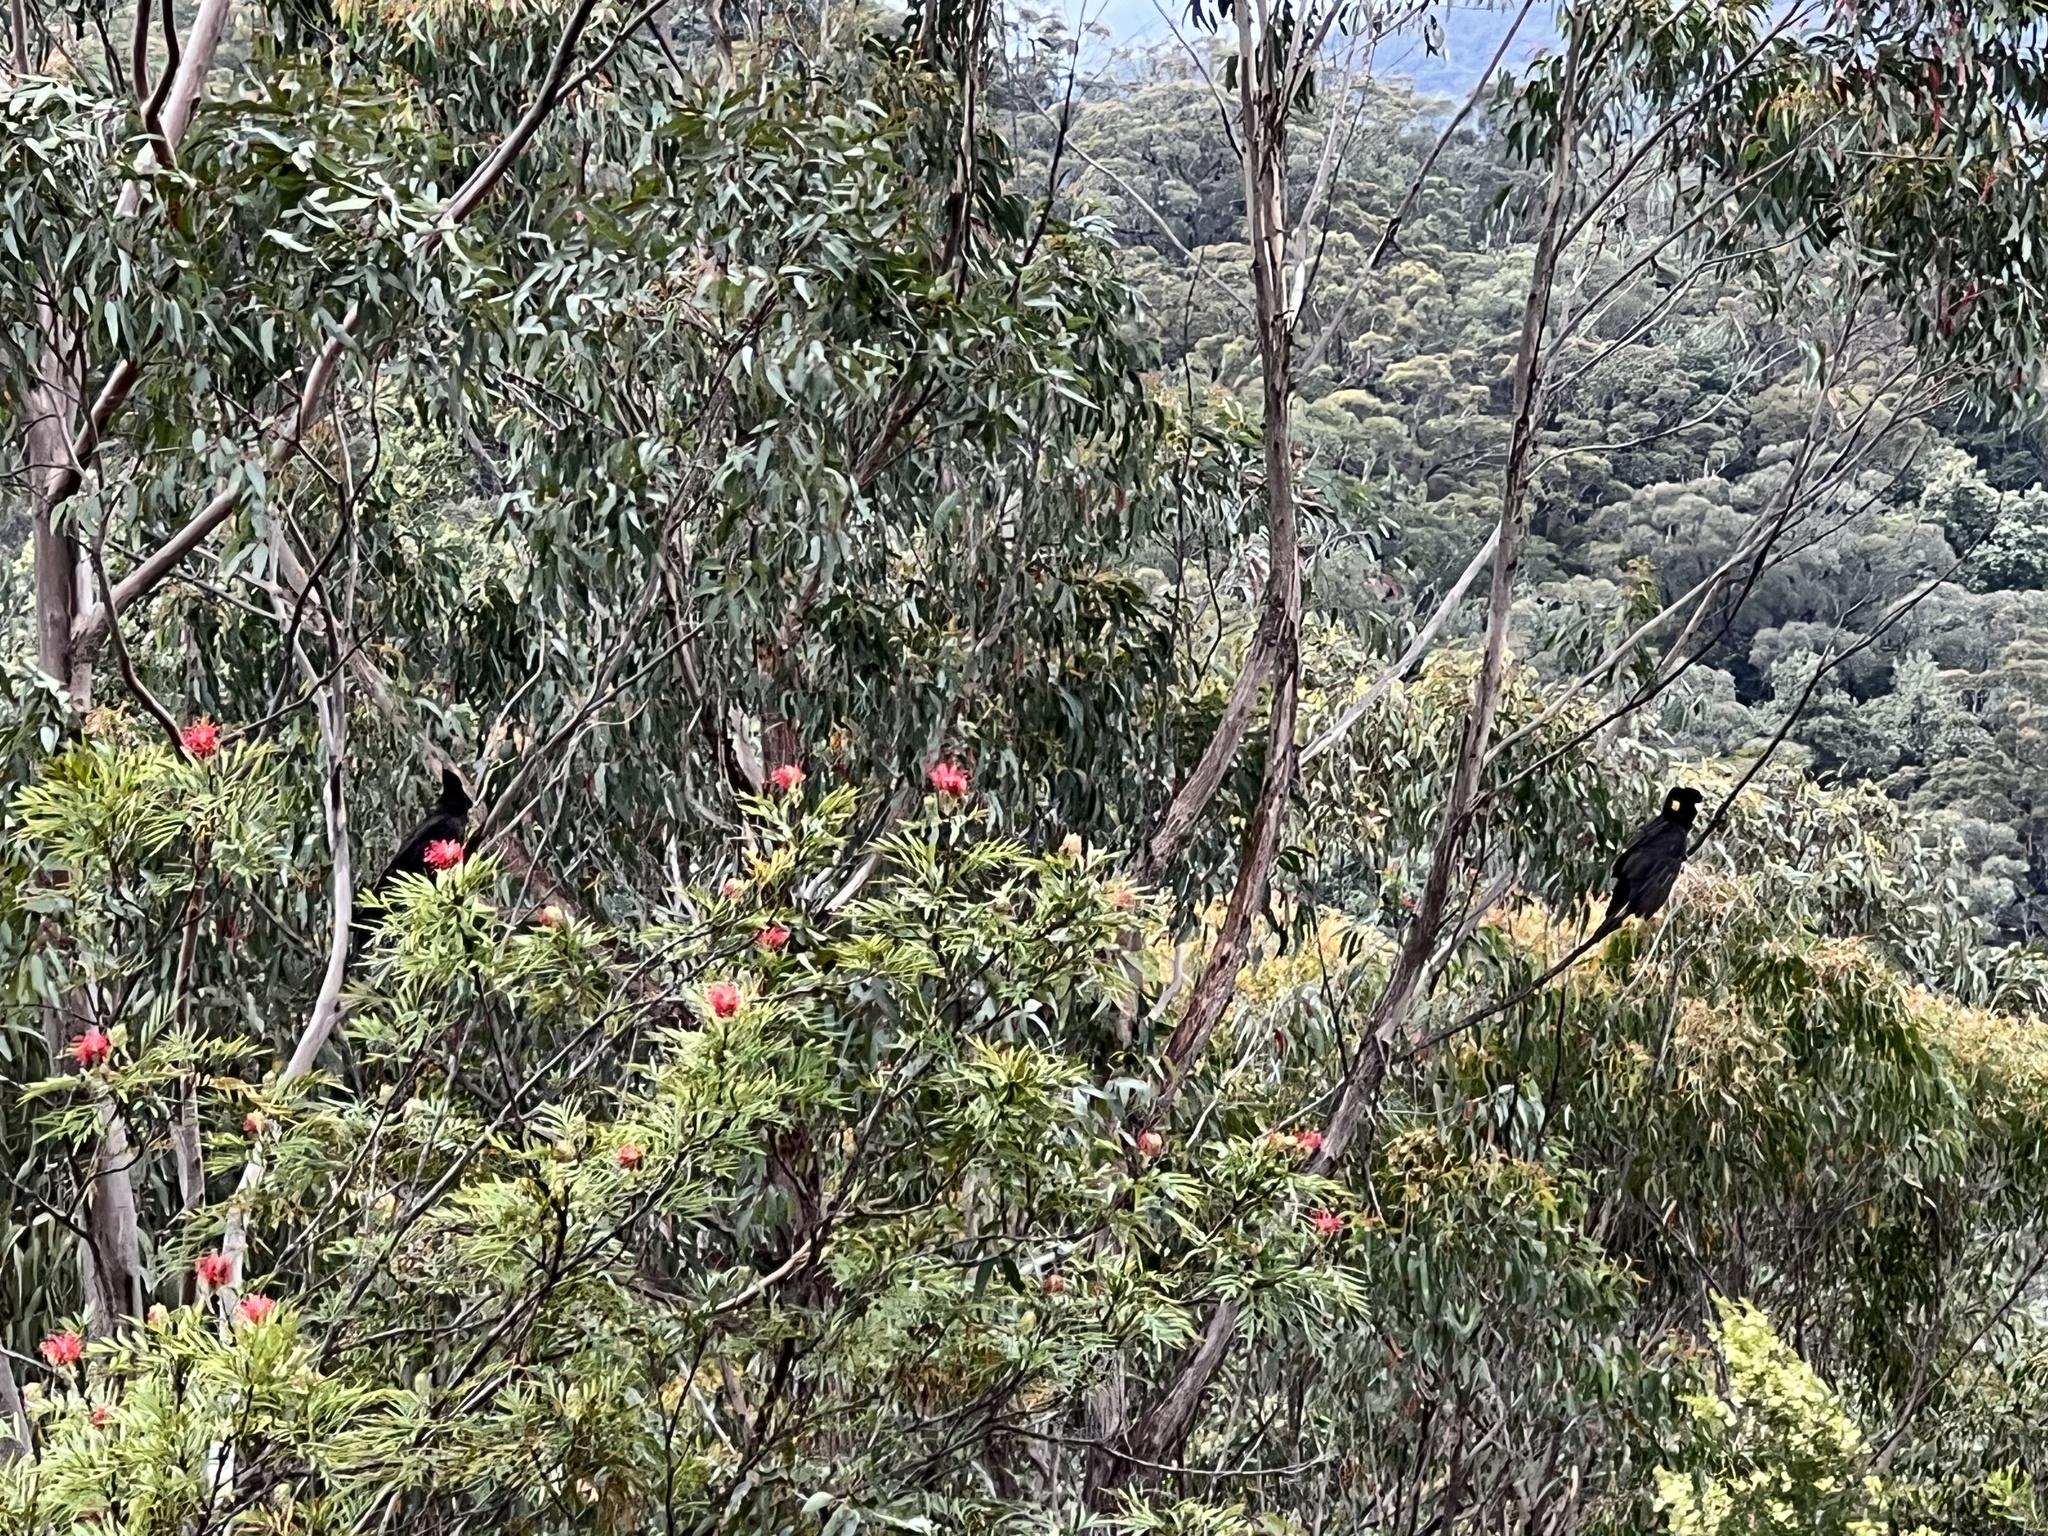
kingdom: Animalia
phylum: Chordata
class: Aves
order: Psittaciformes
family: Cacatuidae
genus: Zanda
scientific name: Zanda funerea
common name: Yellow-tailed black-cockatoo
